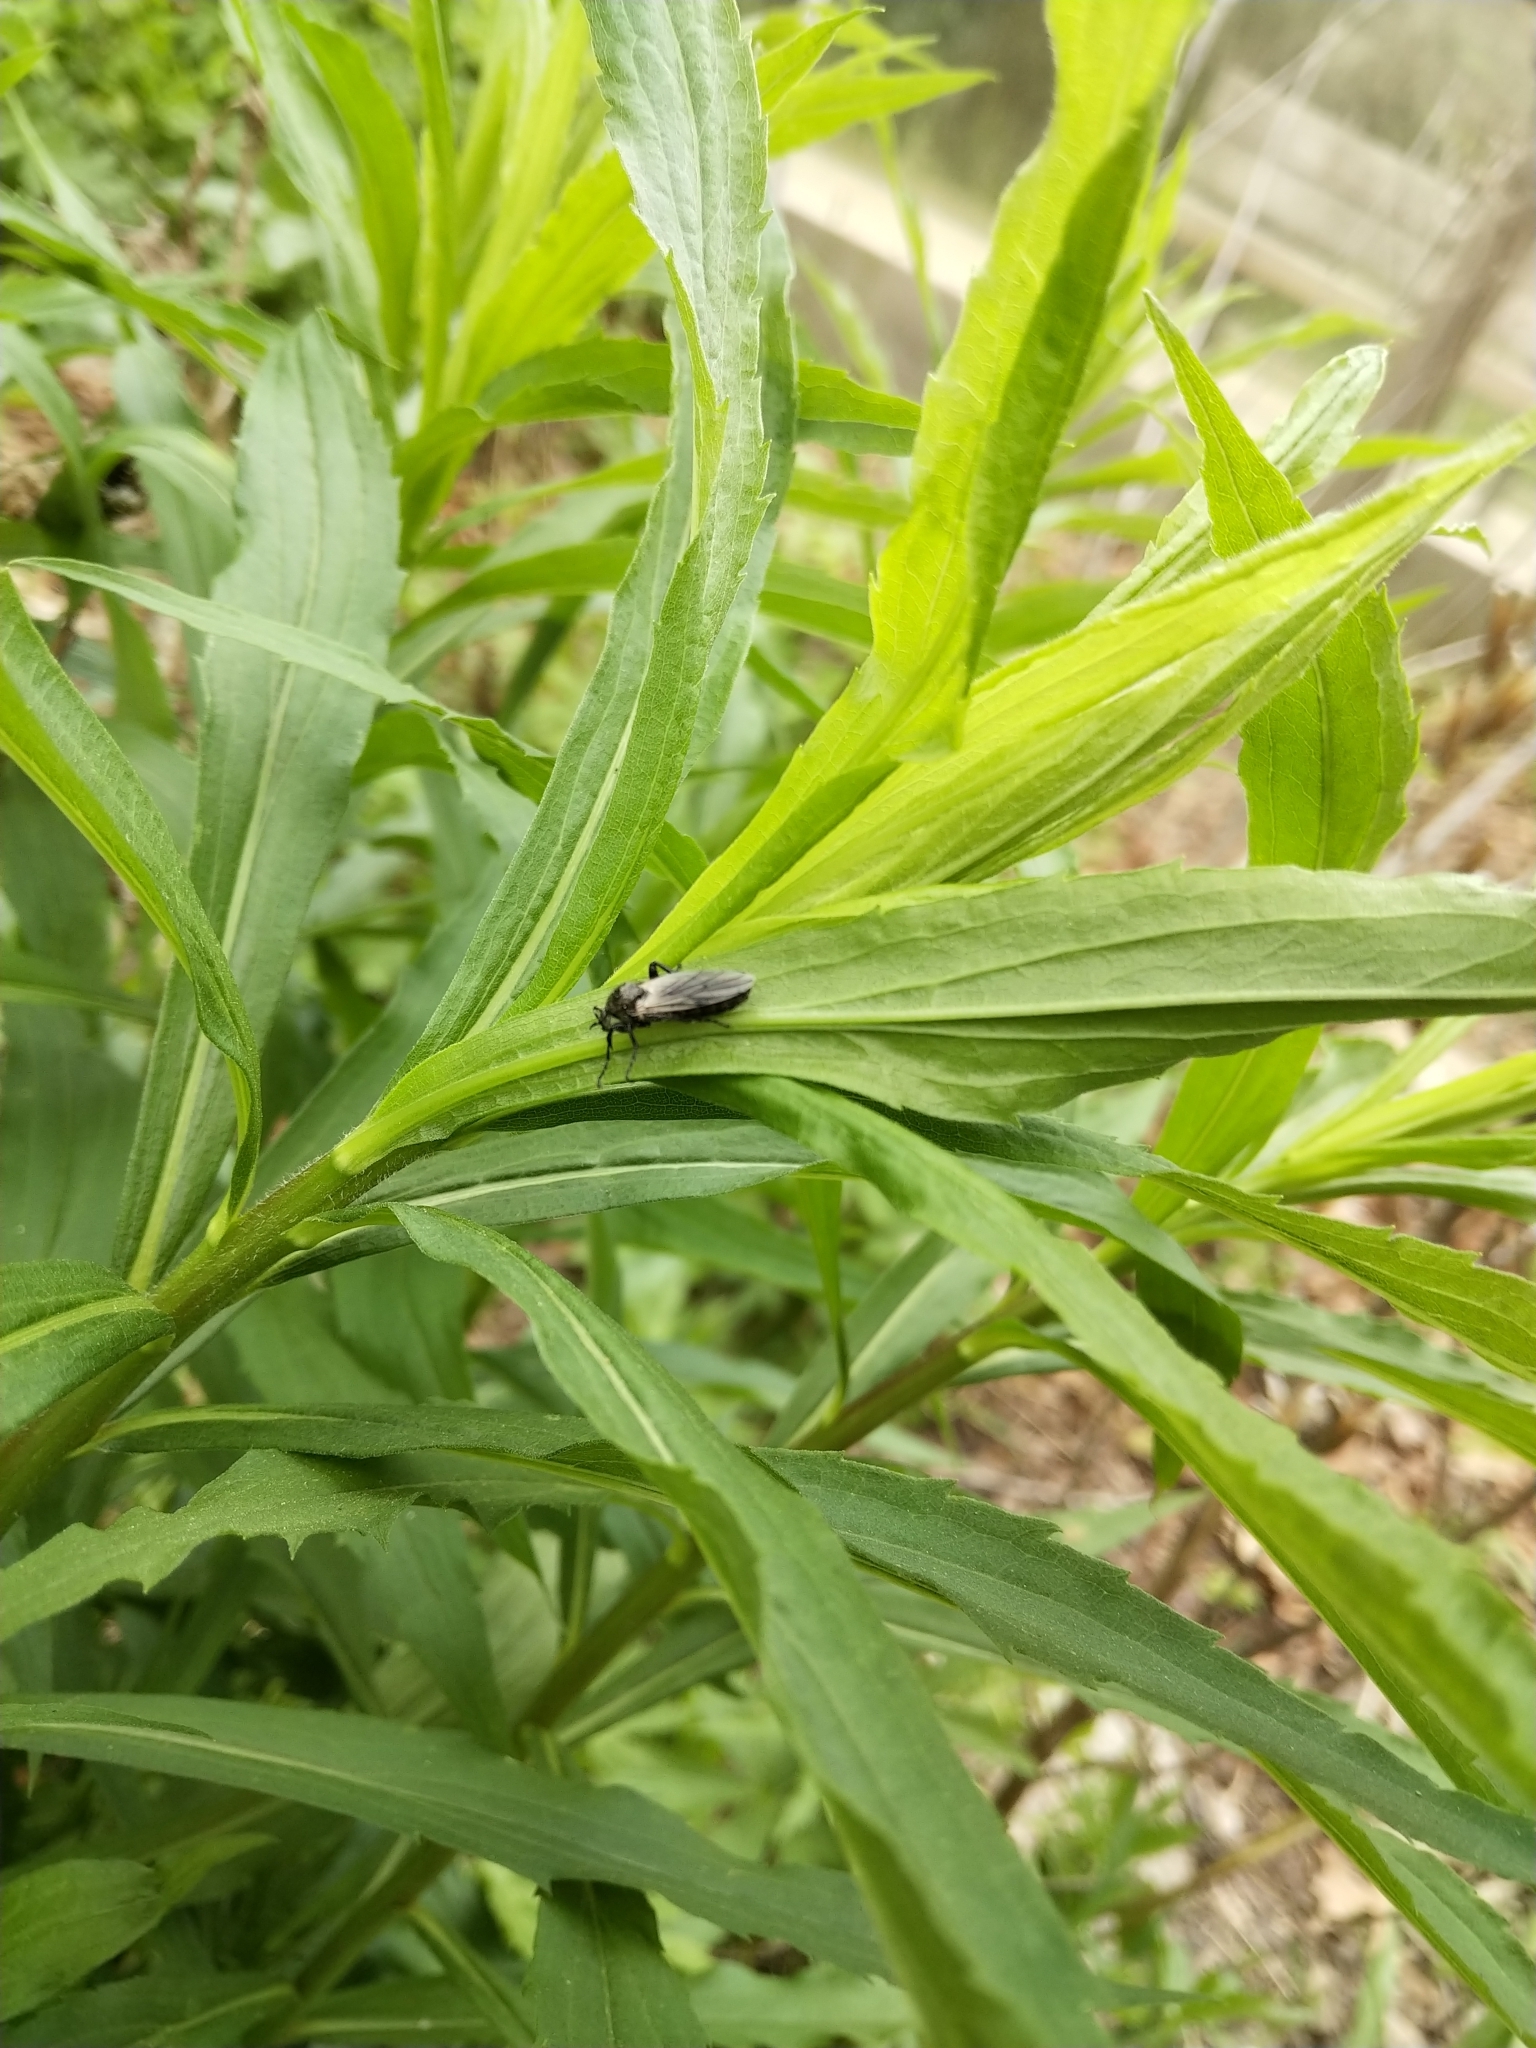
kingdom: Animalia
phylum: Arthropoda
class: Insecta
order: Diptera
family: Bibionidae
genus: Bibio
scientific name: Bibio albipennis
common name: White-winged march fly
